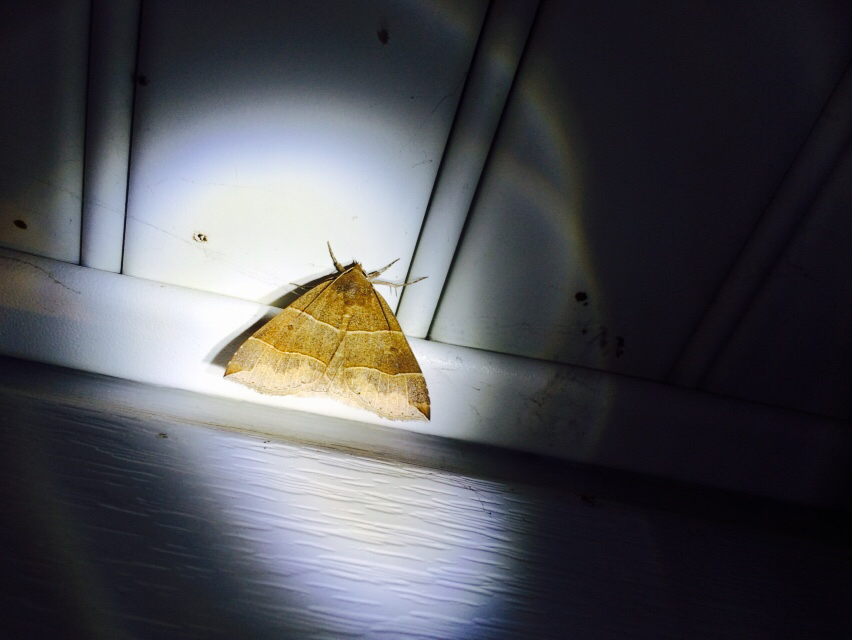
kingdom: Animalia
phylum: Arthropoda
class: Insecta
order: Lepidoptera
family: Erebidae
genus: Parallelia
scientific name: Parallelia bistriaris
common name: Maple looper moth
